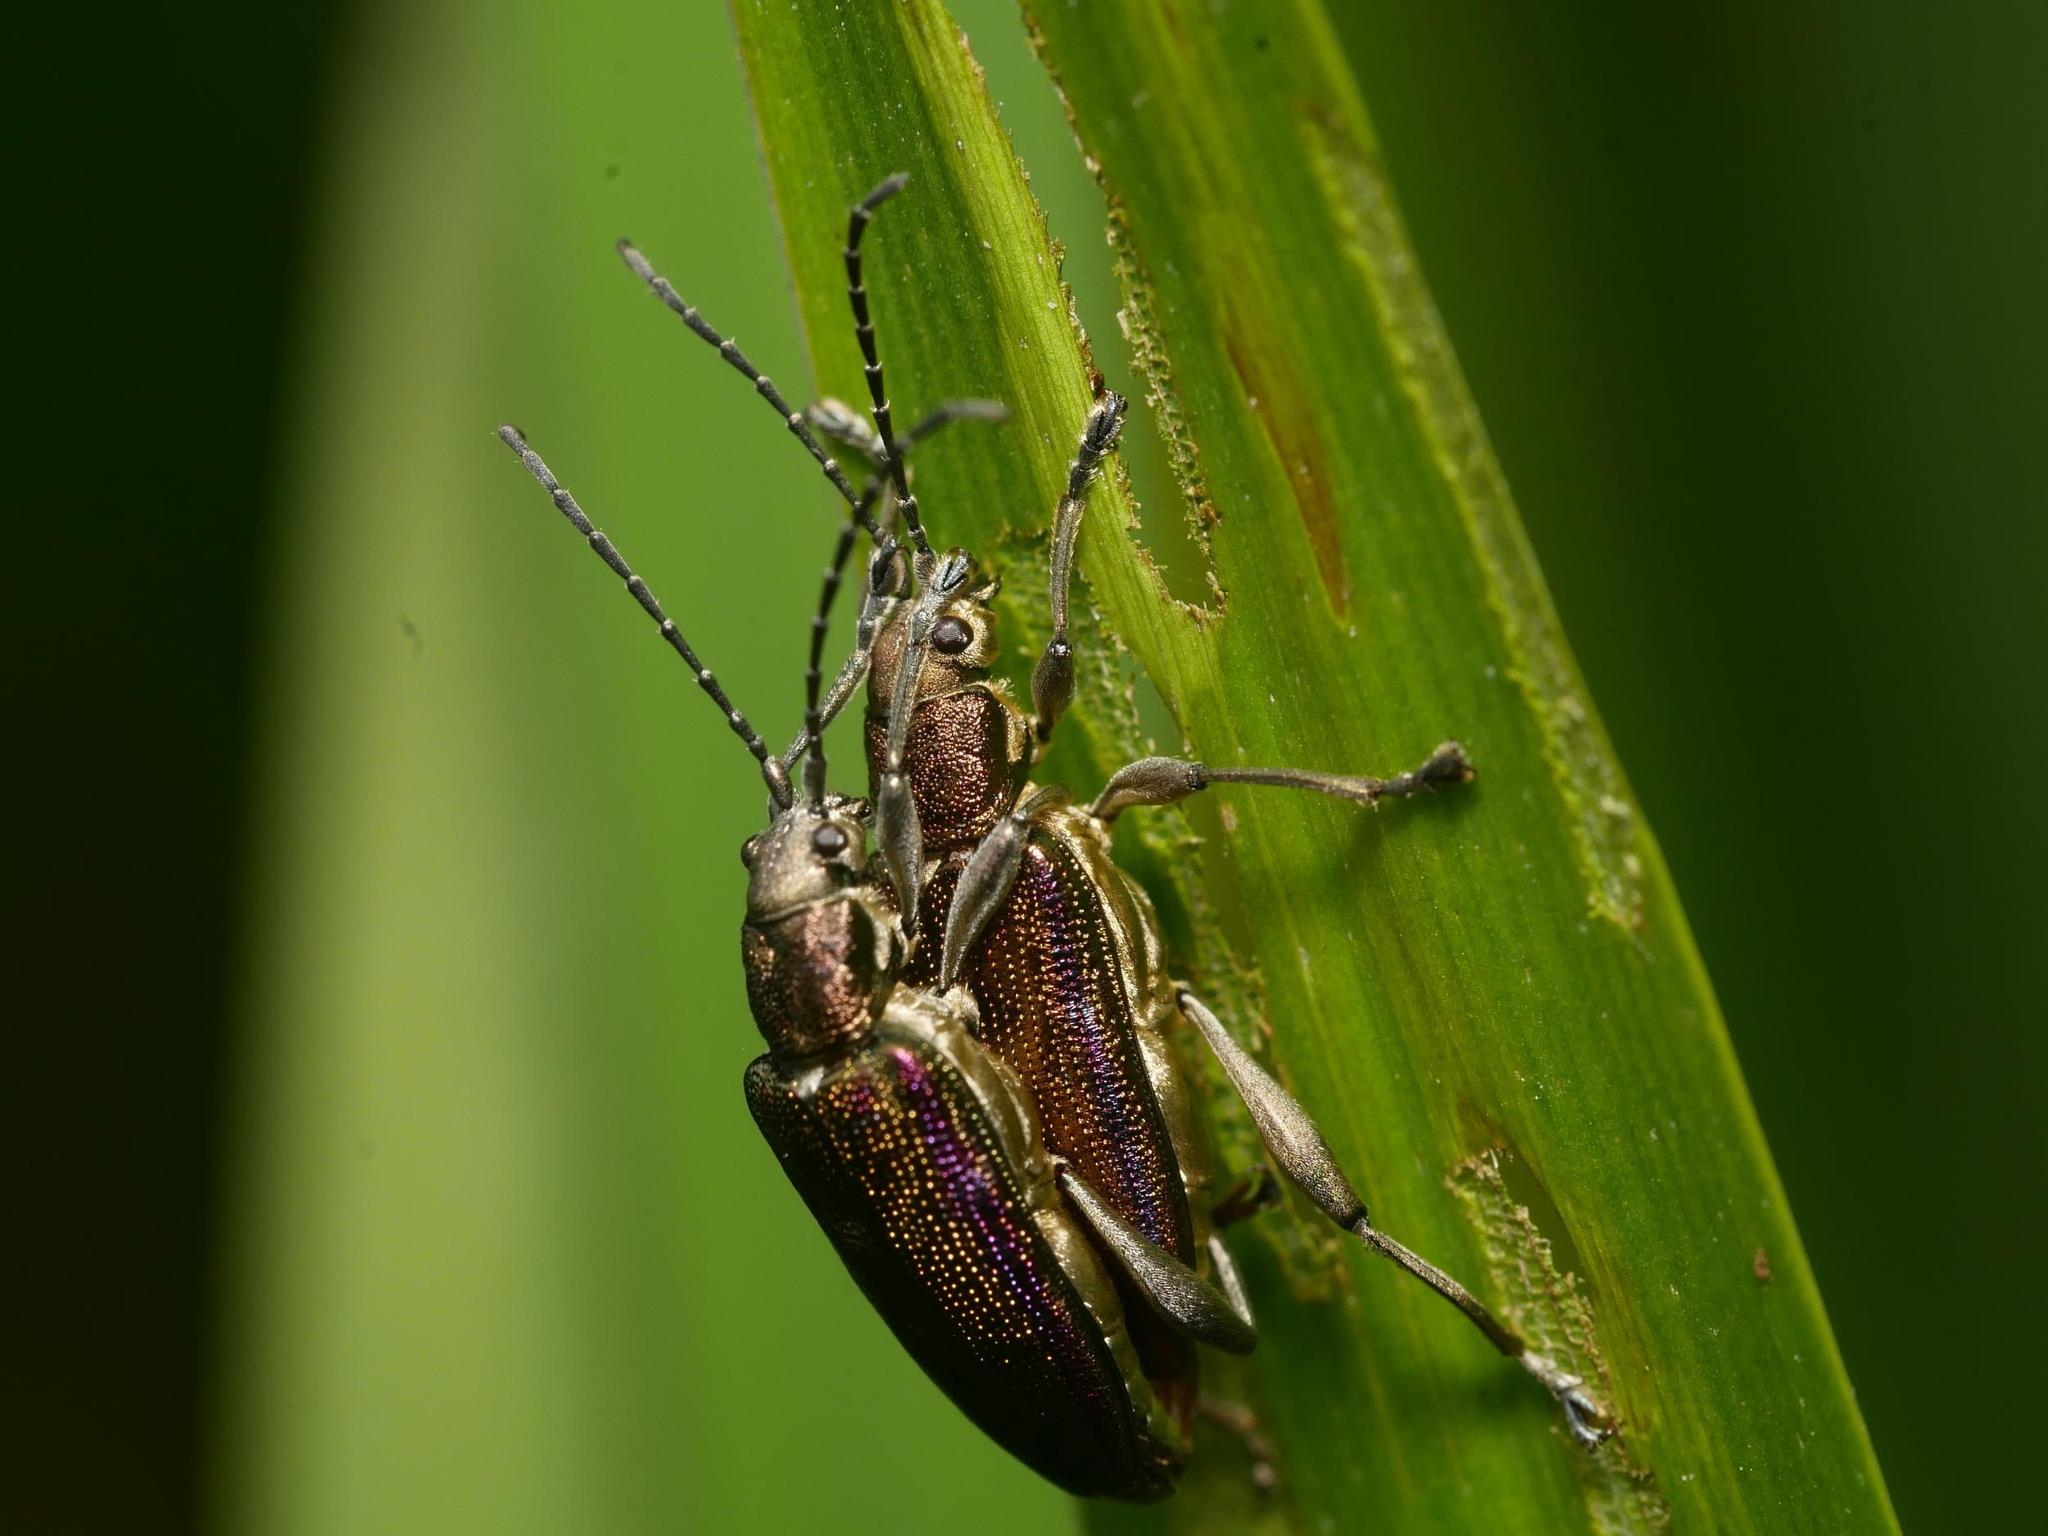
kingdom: Animalia
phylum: Arthropoda
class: Insecta
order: Coleoptera
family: Chrysomelidae
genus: Donacia
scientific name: Donacia marginata
